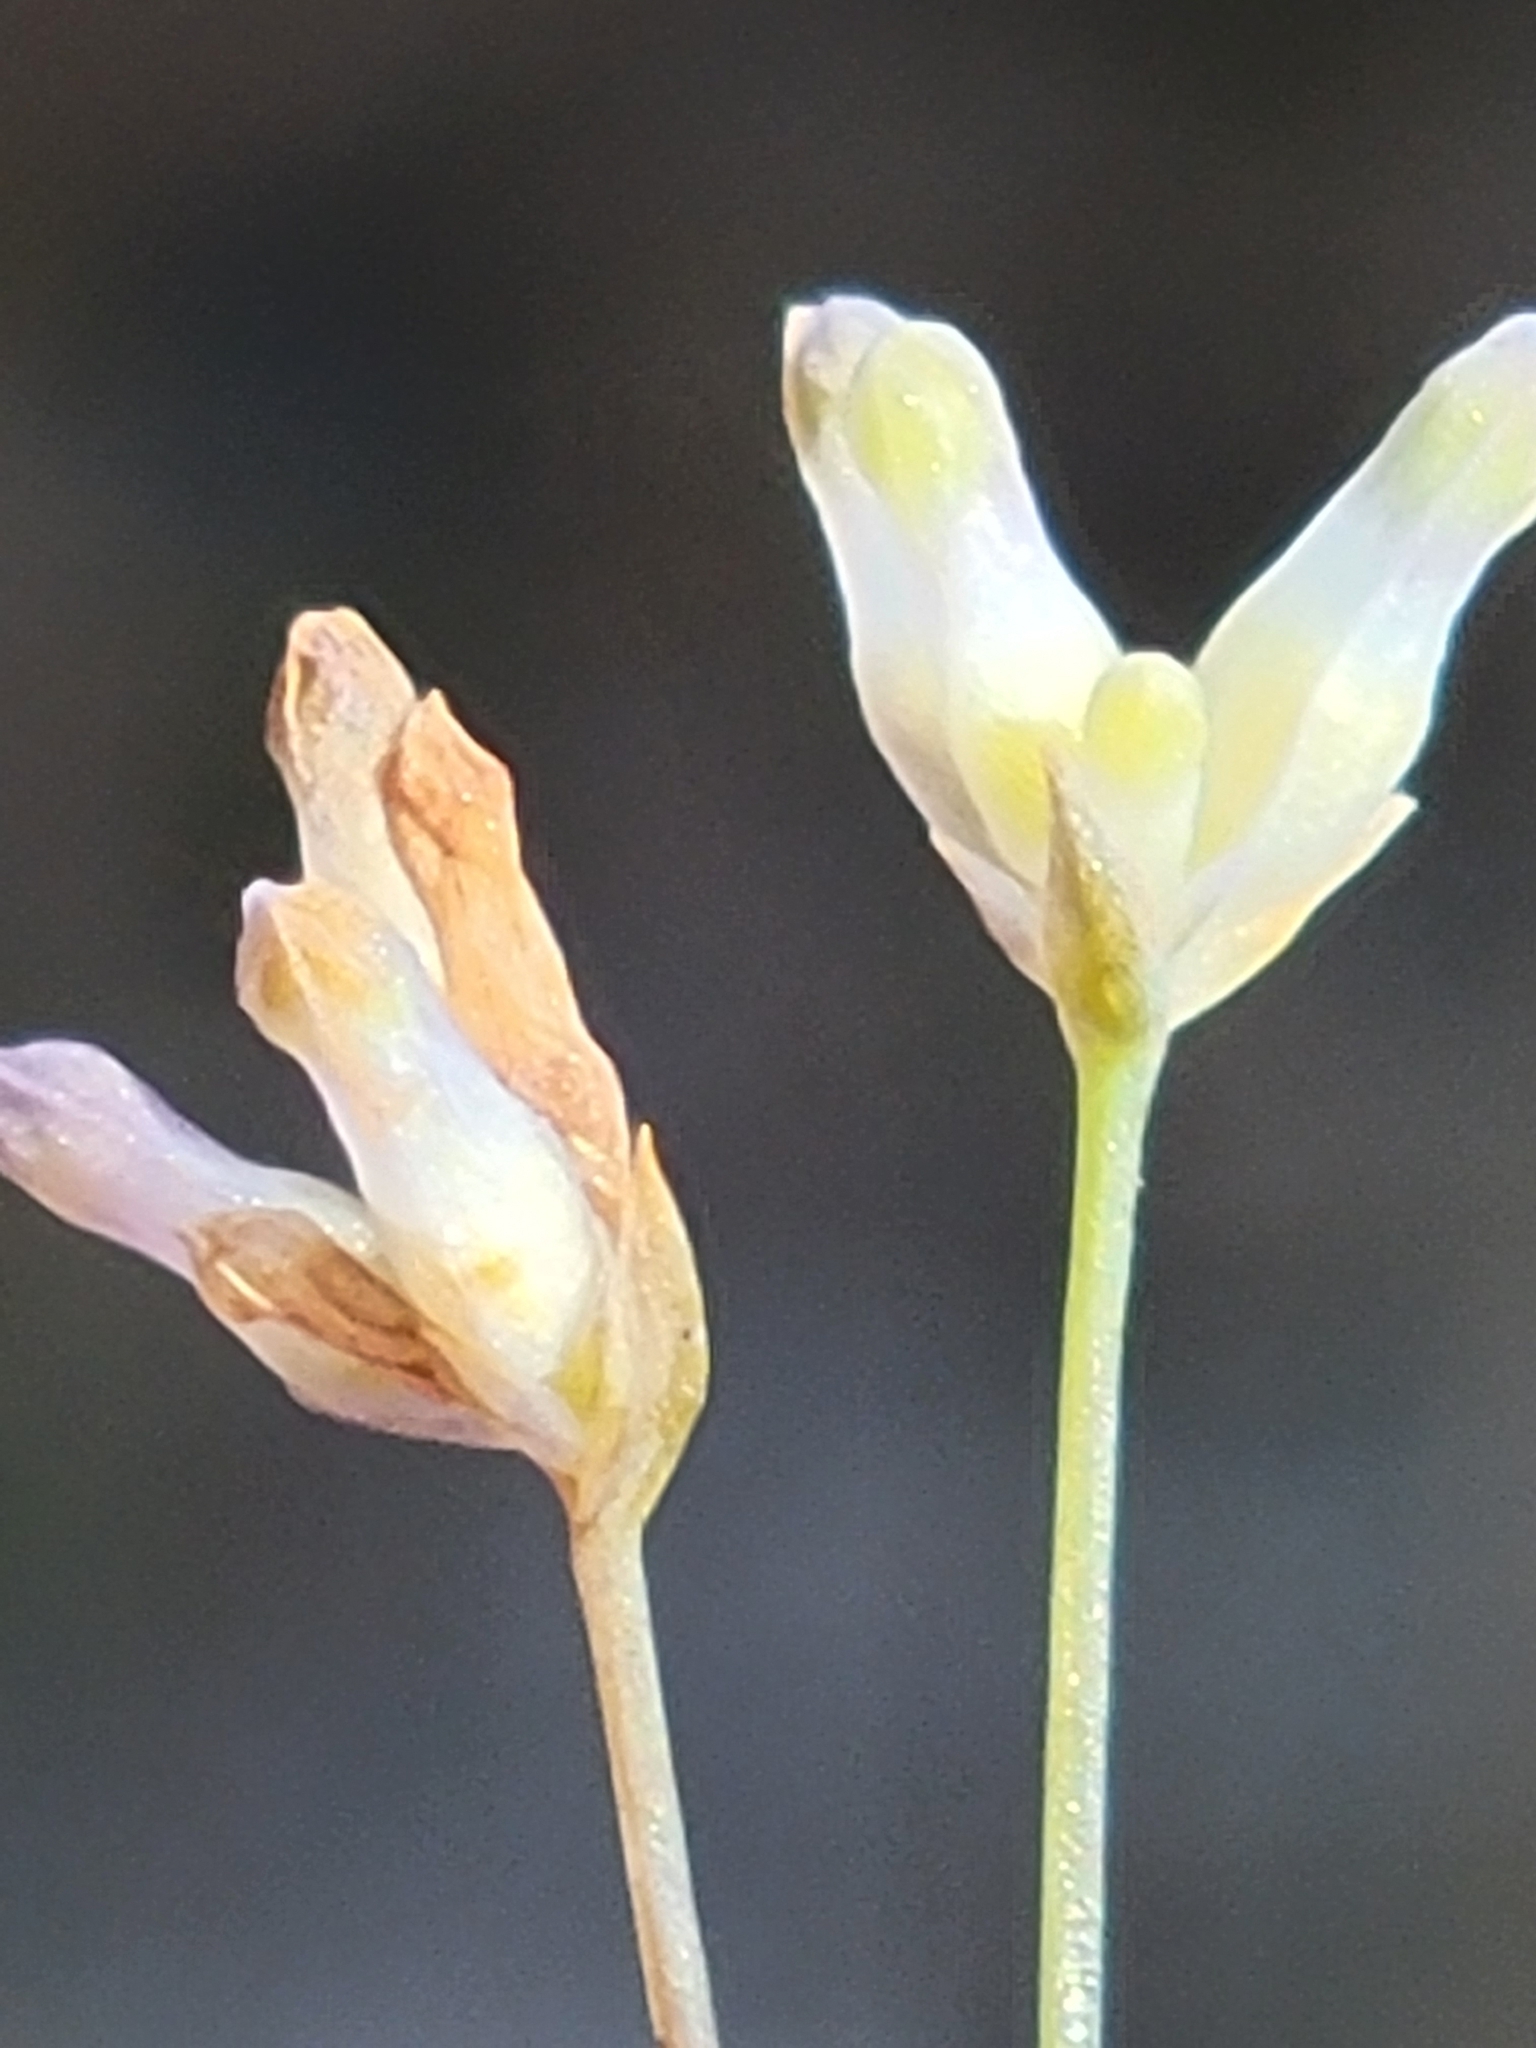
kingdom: Plantae
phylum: Tracheophyta
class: Liliopsida
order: Dioscoreales
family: Burmanniaceae
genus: Burmannia
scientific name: Burmannia capitata
